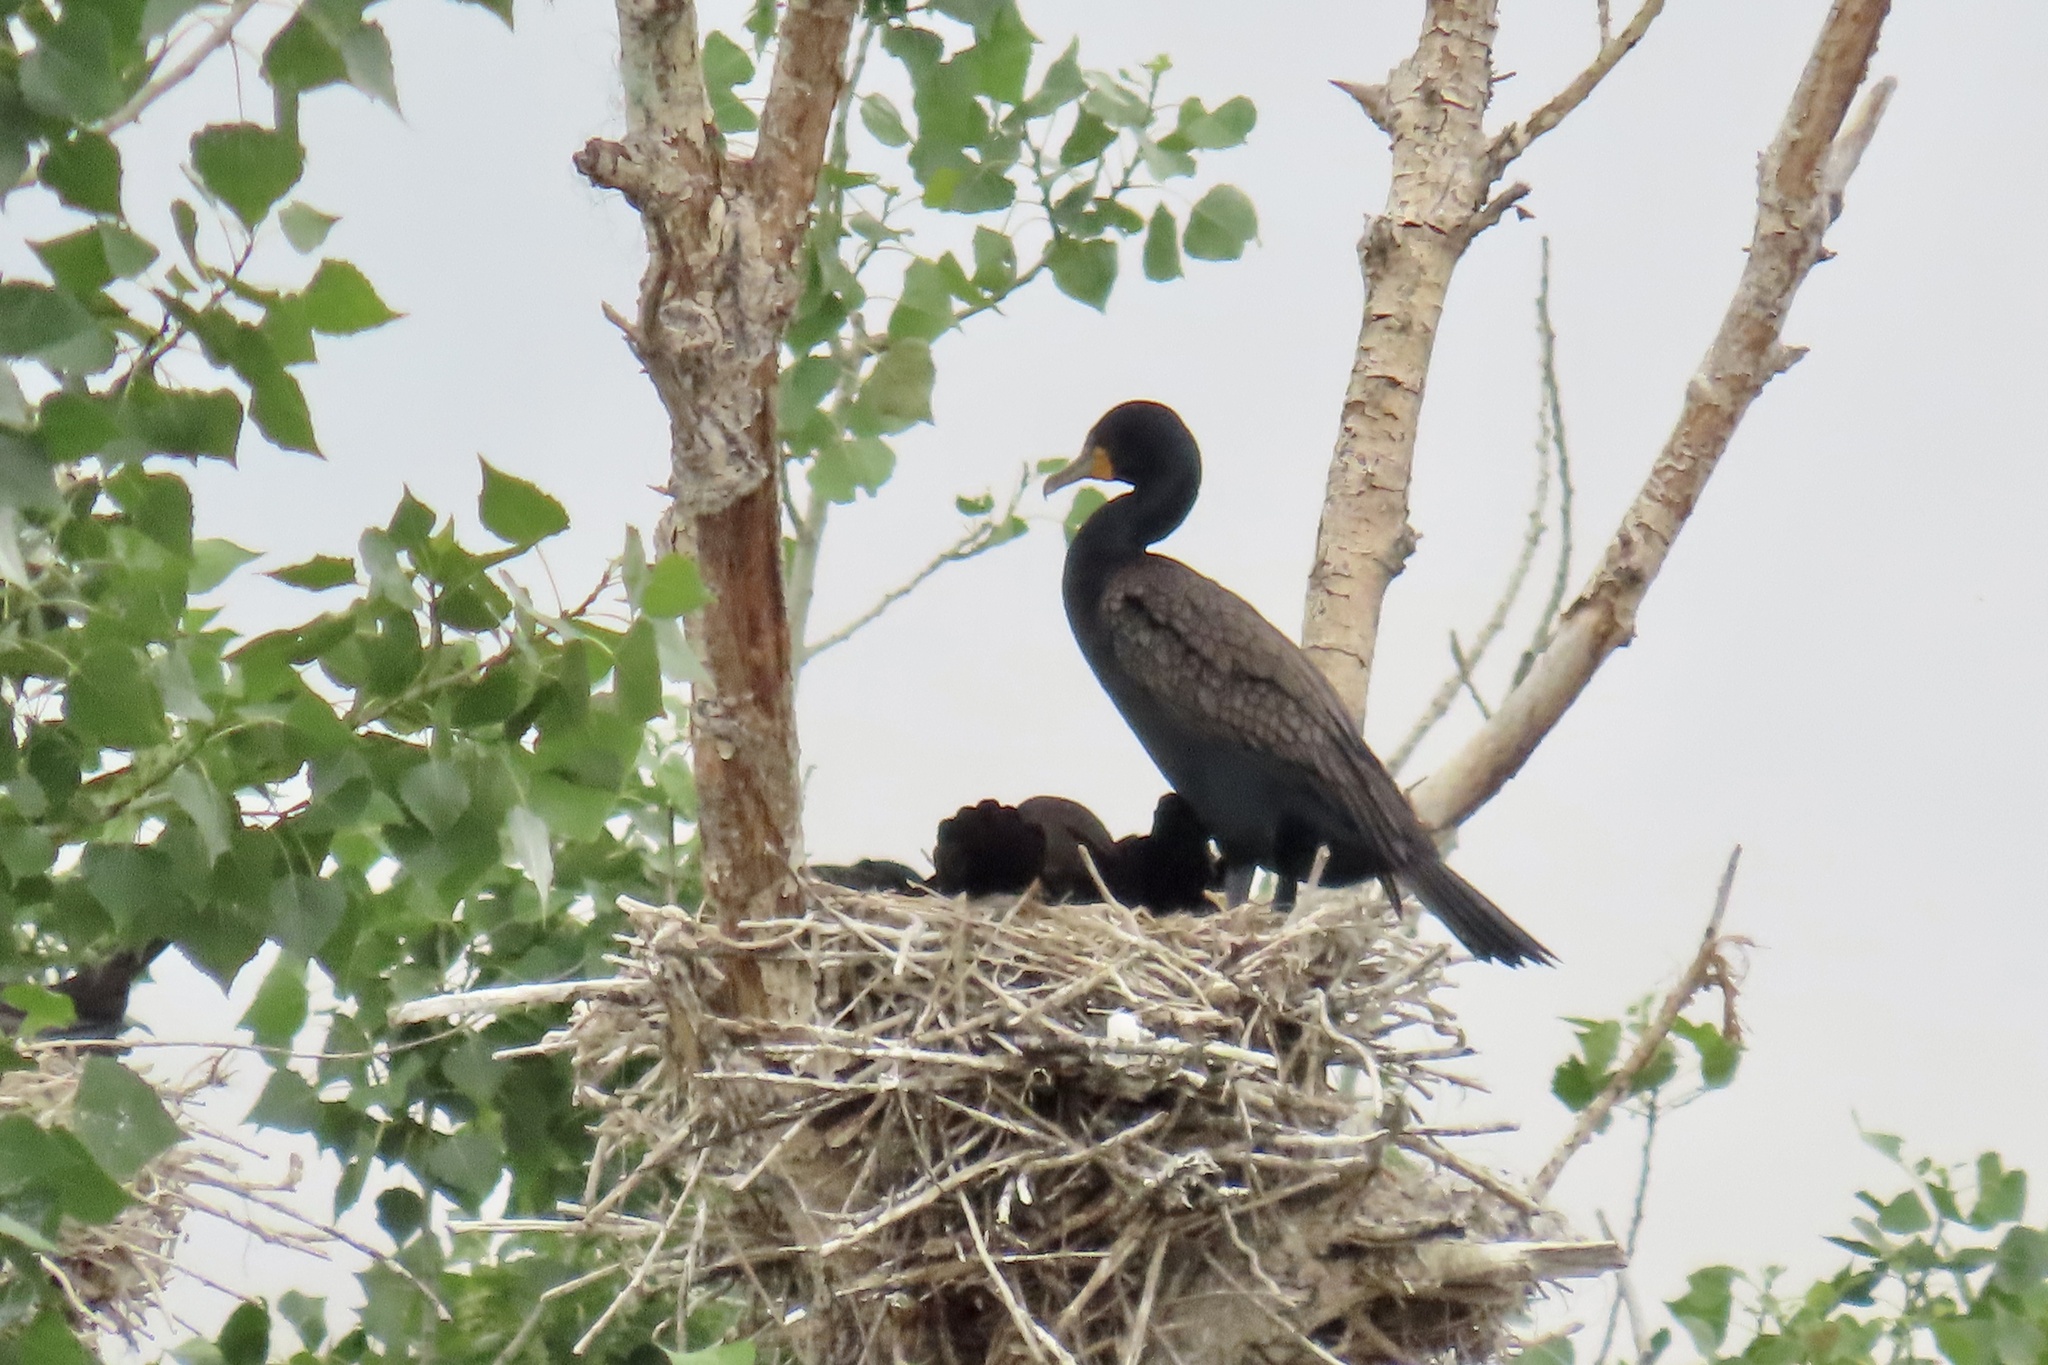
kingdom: Animalia
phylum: Chordata
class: Aves
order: Suliformes
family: Phalacrocoracidae
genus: Phalacrocorax
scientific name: Phalacrocorax auritus
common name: Double-crested cormorant
